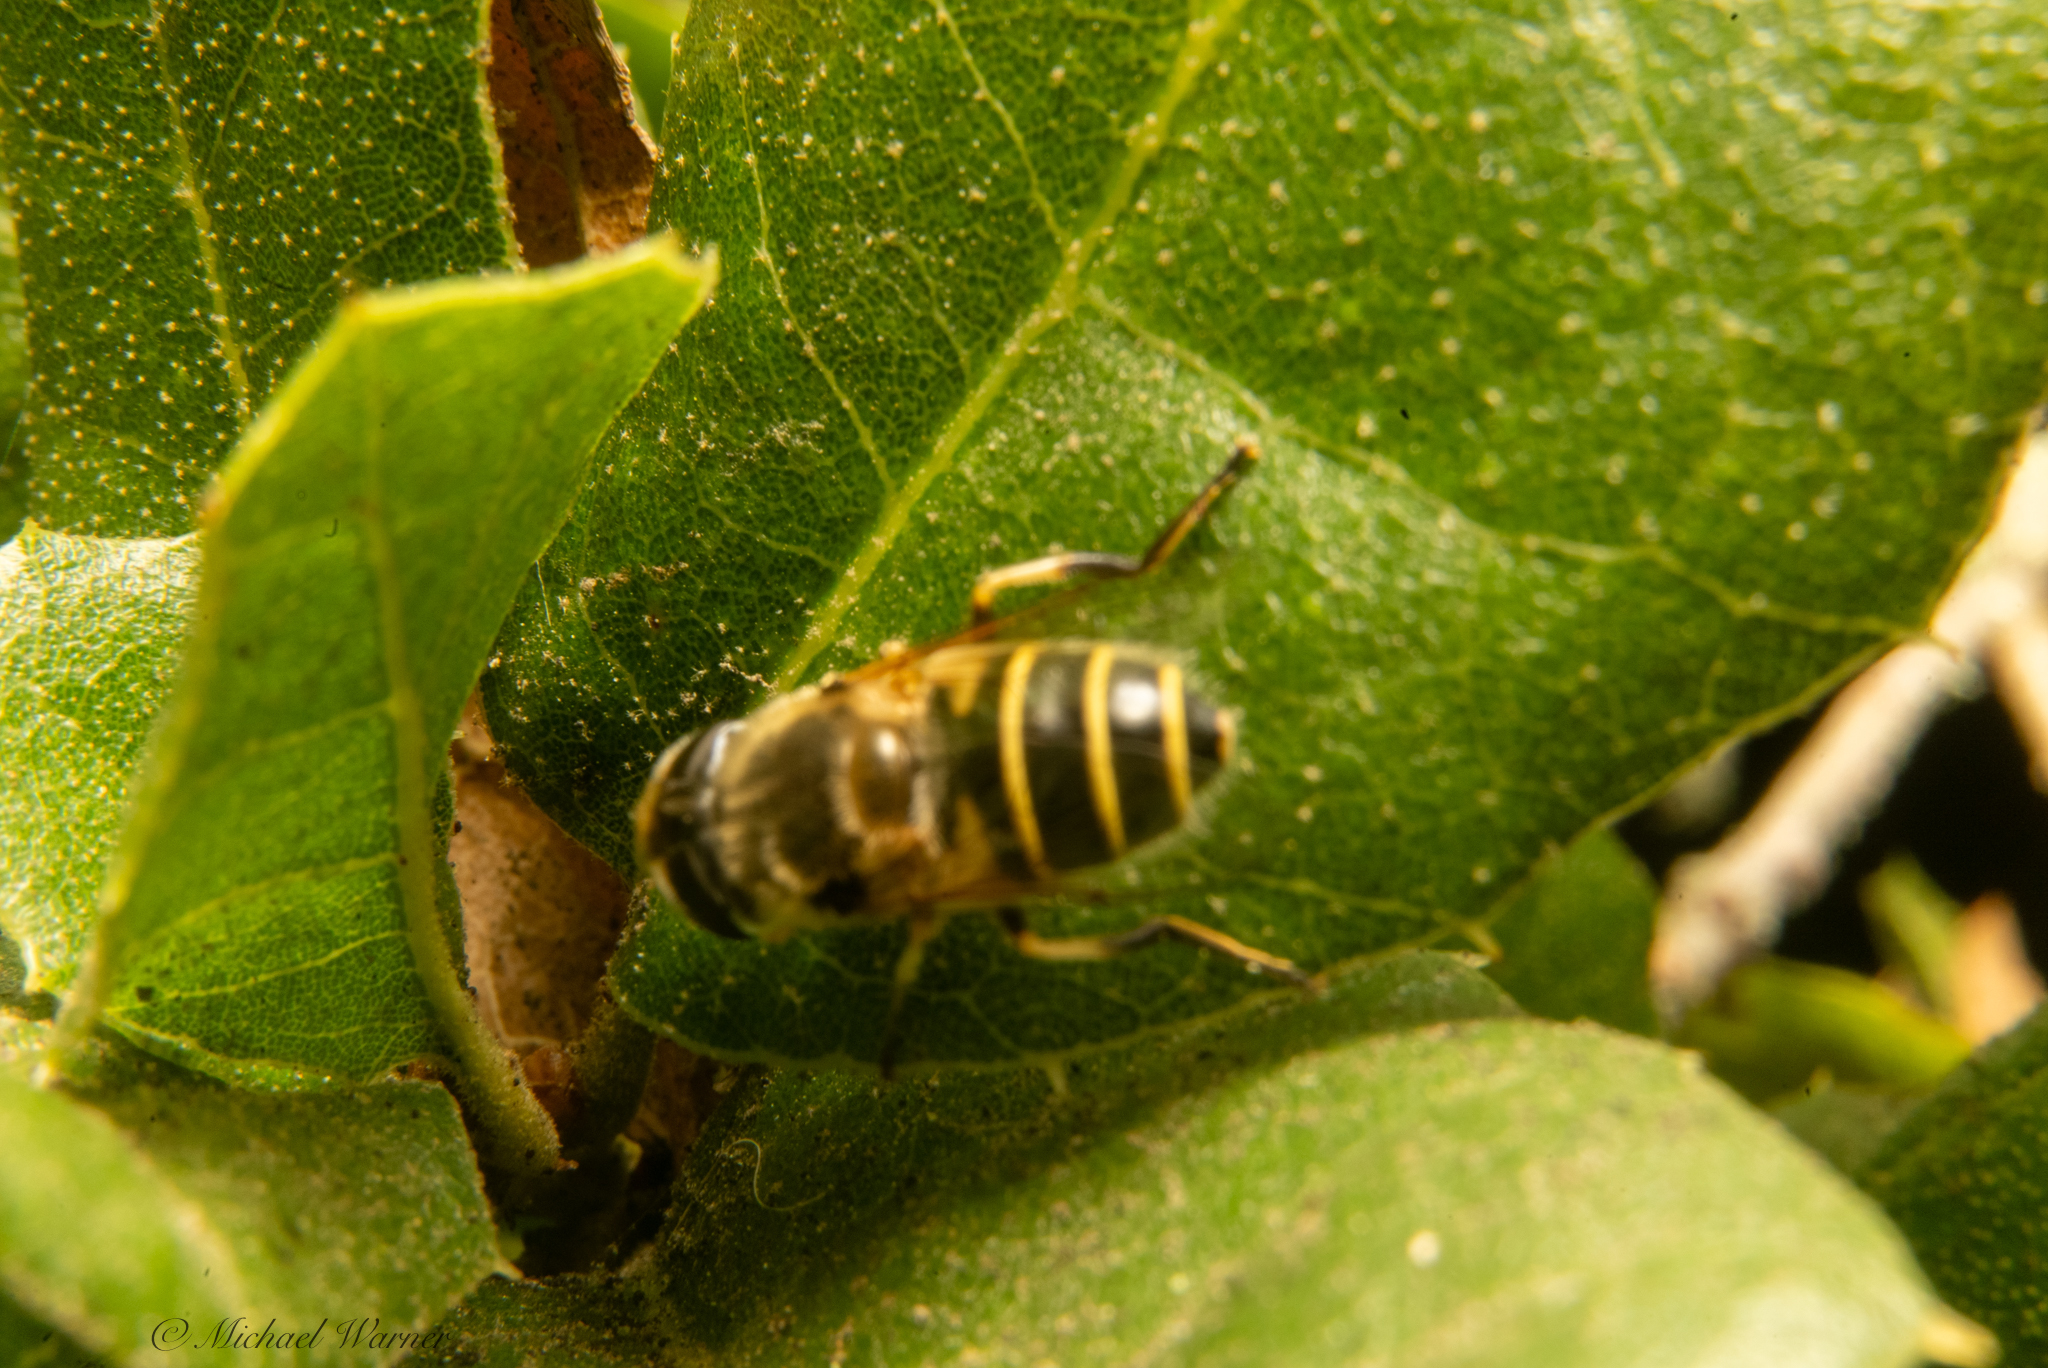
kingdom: Animalia
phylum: Arthropoda
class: Insecta
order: Diptera
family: Syrphidae
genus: Eristalis
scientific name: Eristalis hirta
